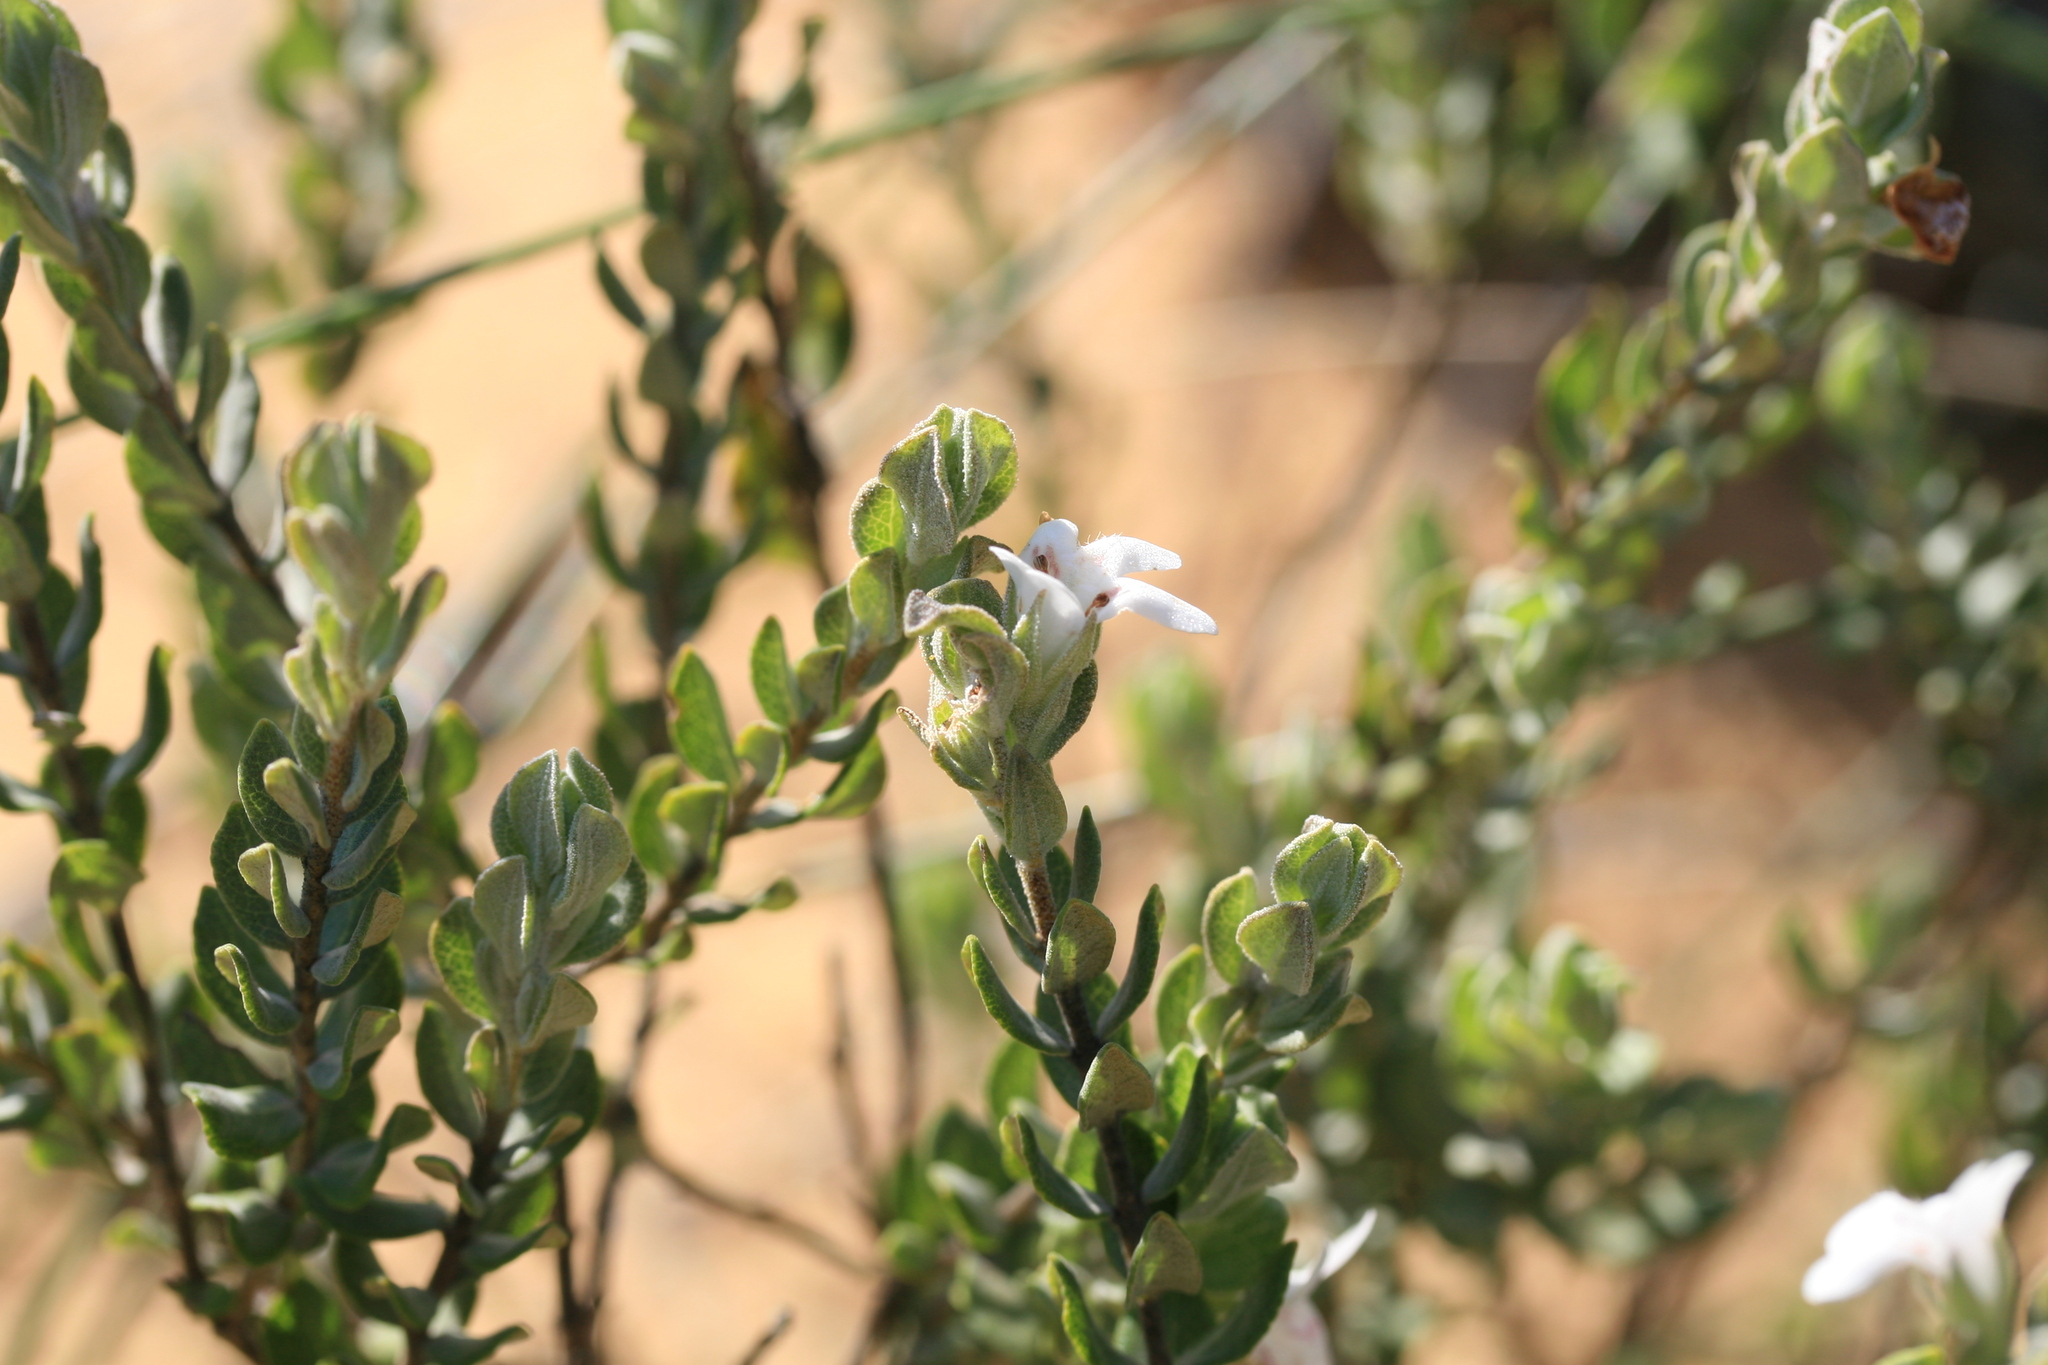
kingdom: Plantae
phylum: Tracheophyta
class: Magnoliopsida
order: Lamiales
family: Lamiaceae
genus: Pityrodia
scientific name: Pityrodia hemigenioides
